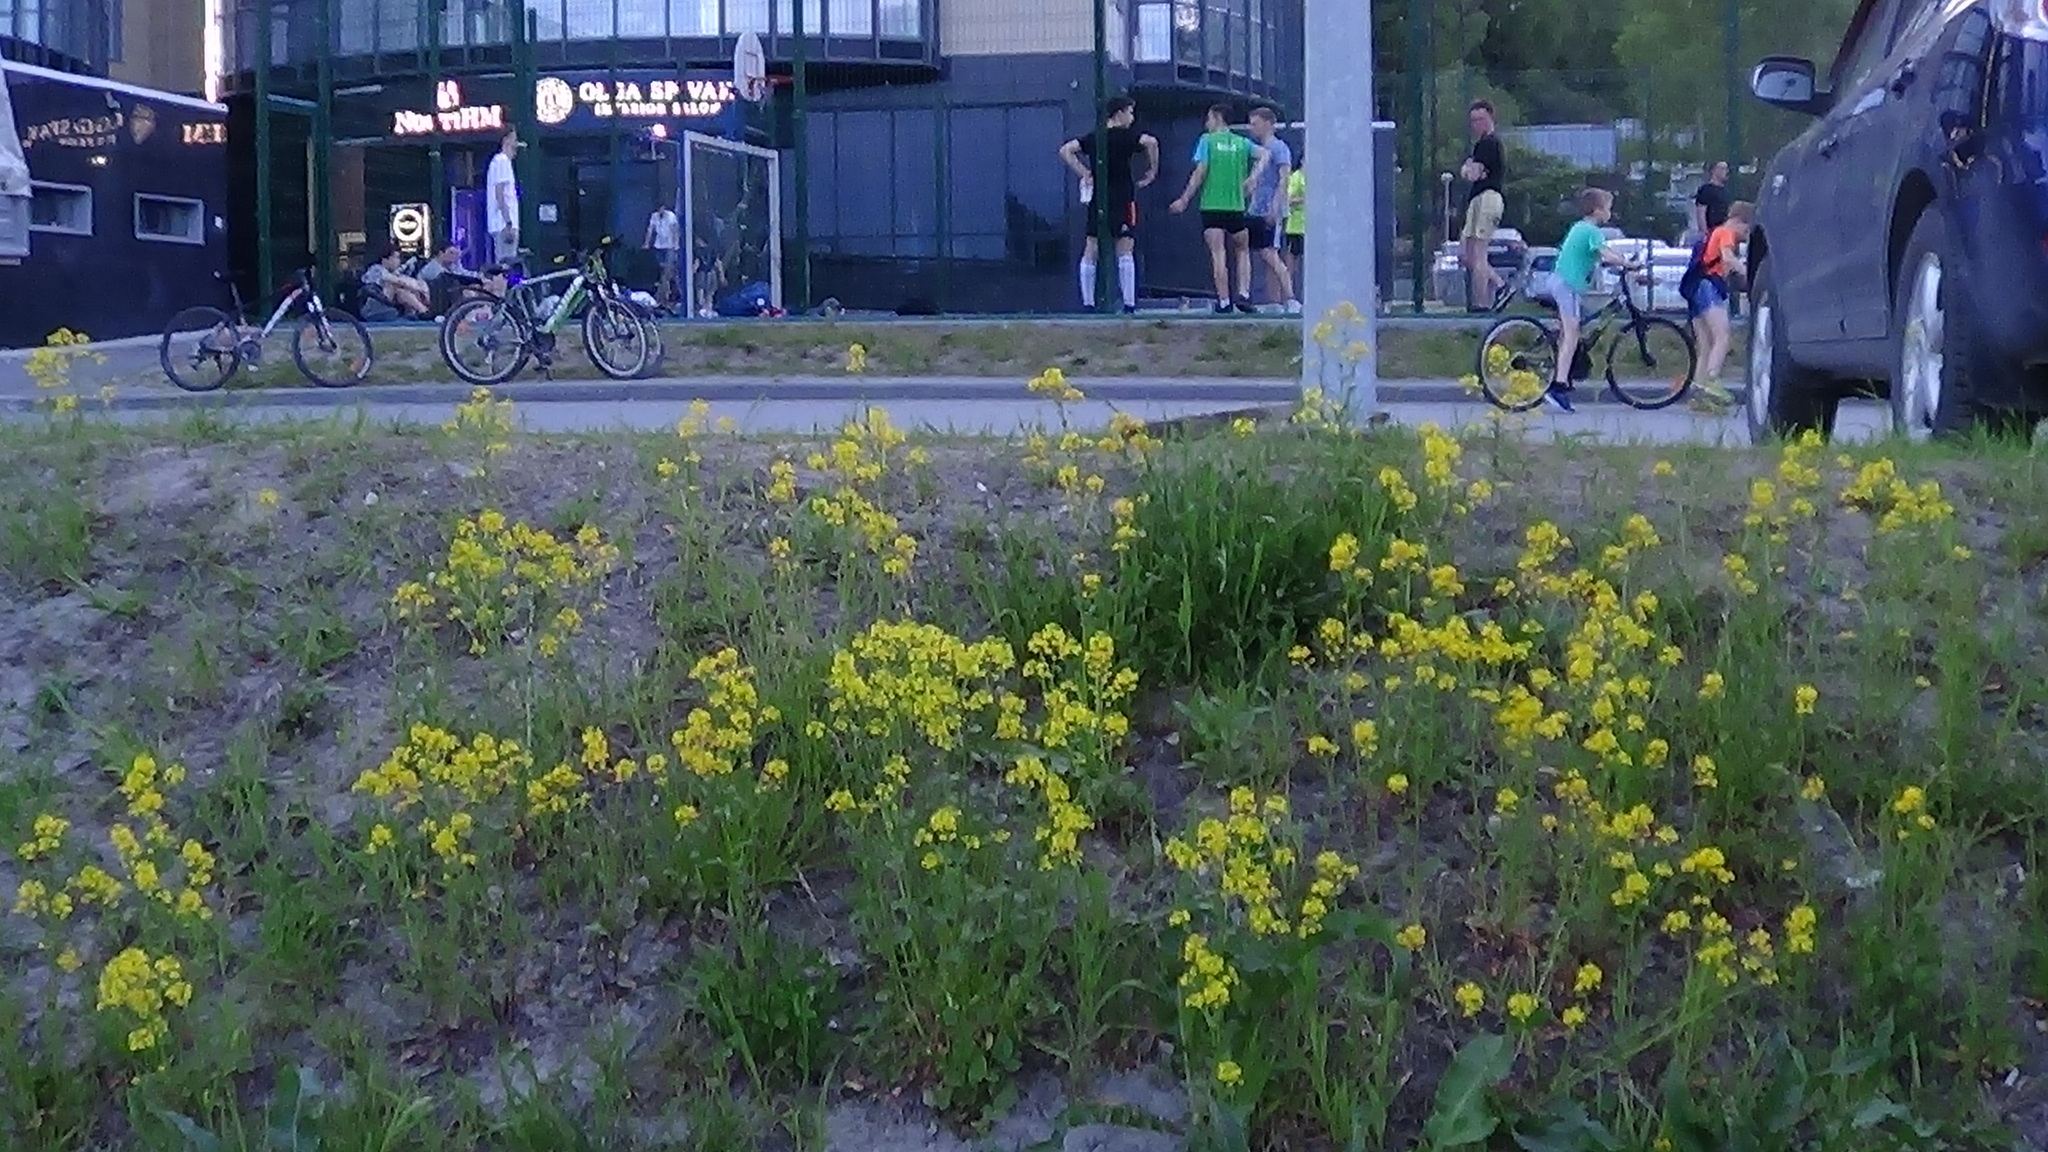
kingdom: Plantae
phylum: Tracheophyta
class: Magnoliopsida
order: Brassicales
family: Brassicaceae
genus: Barbarea
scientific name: Barbarea vulgaris
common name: Cressy-greens
